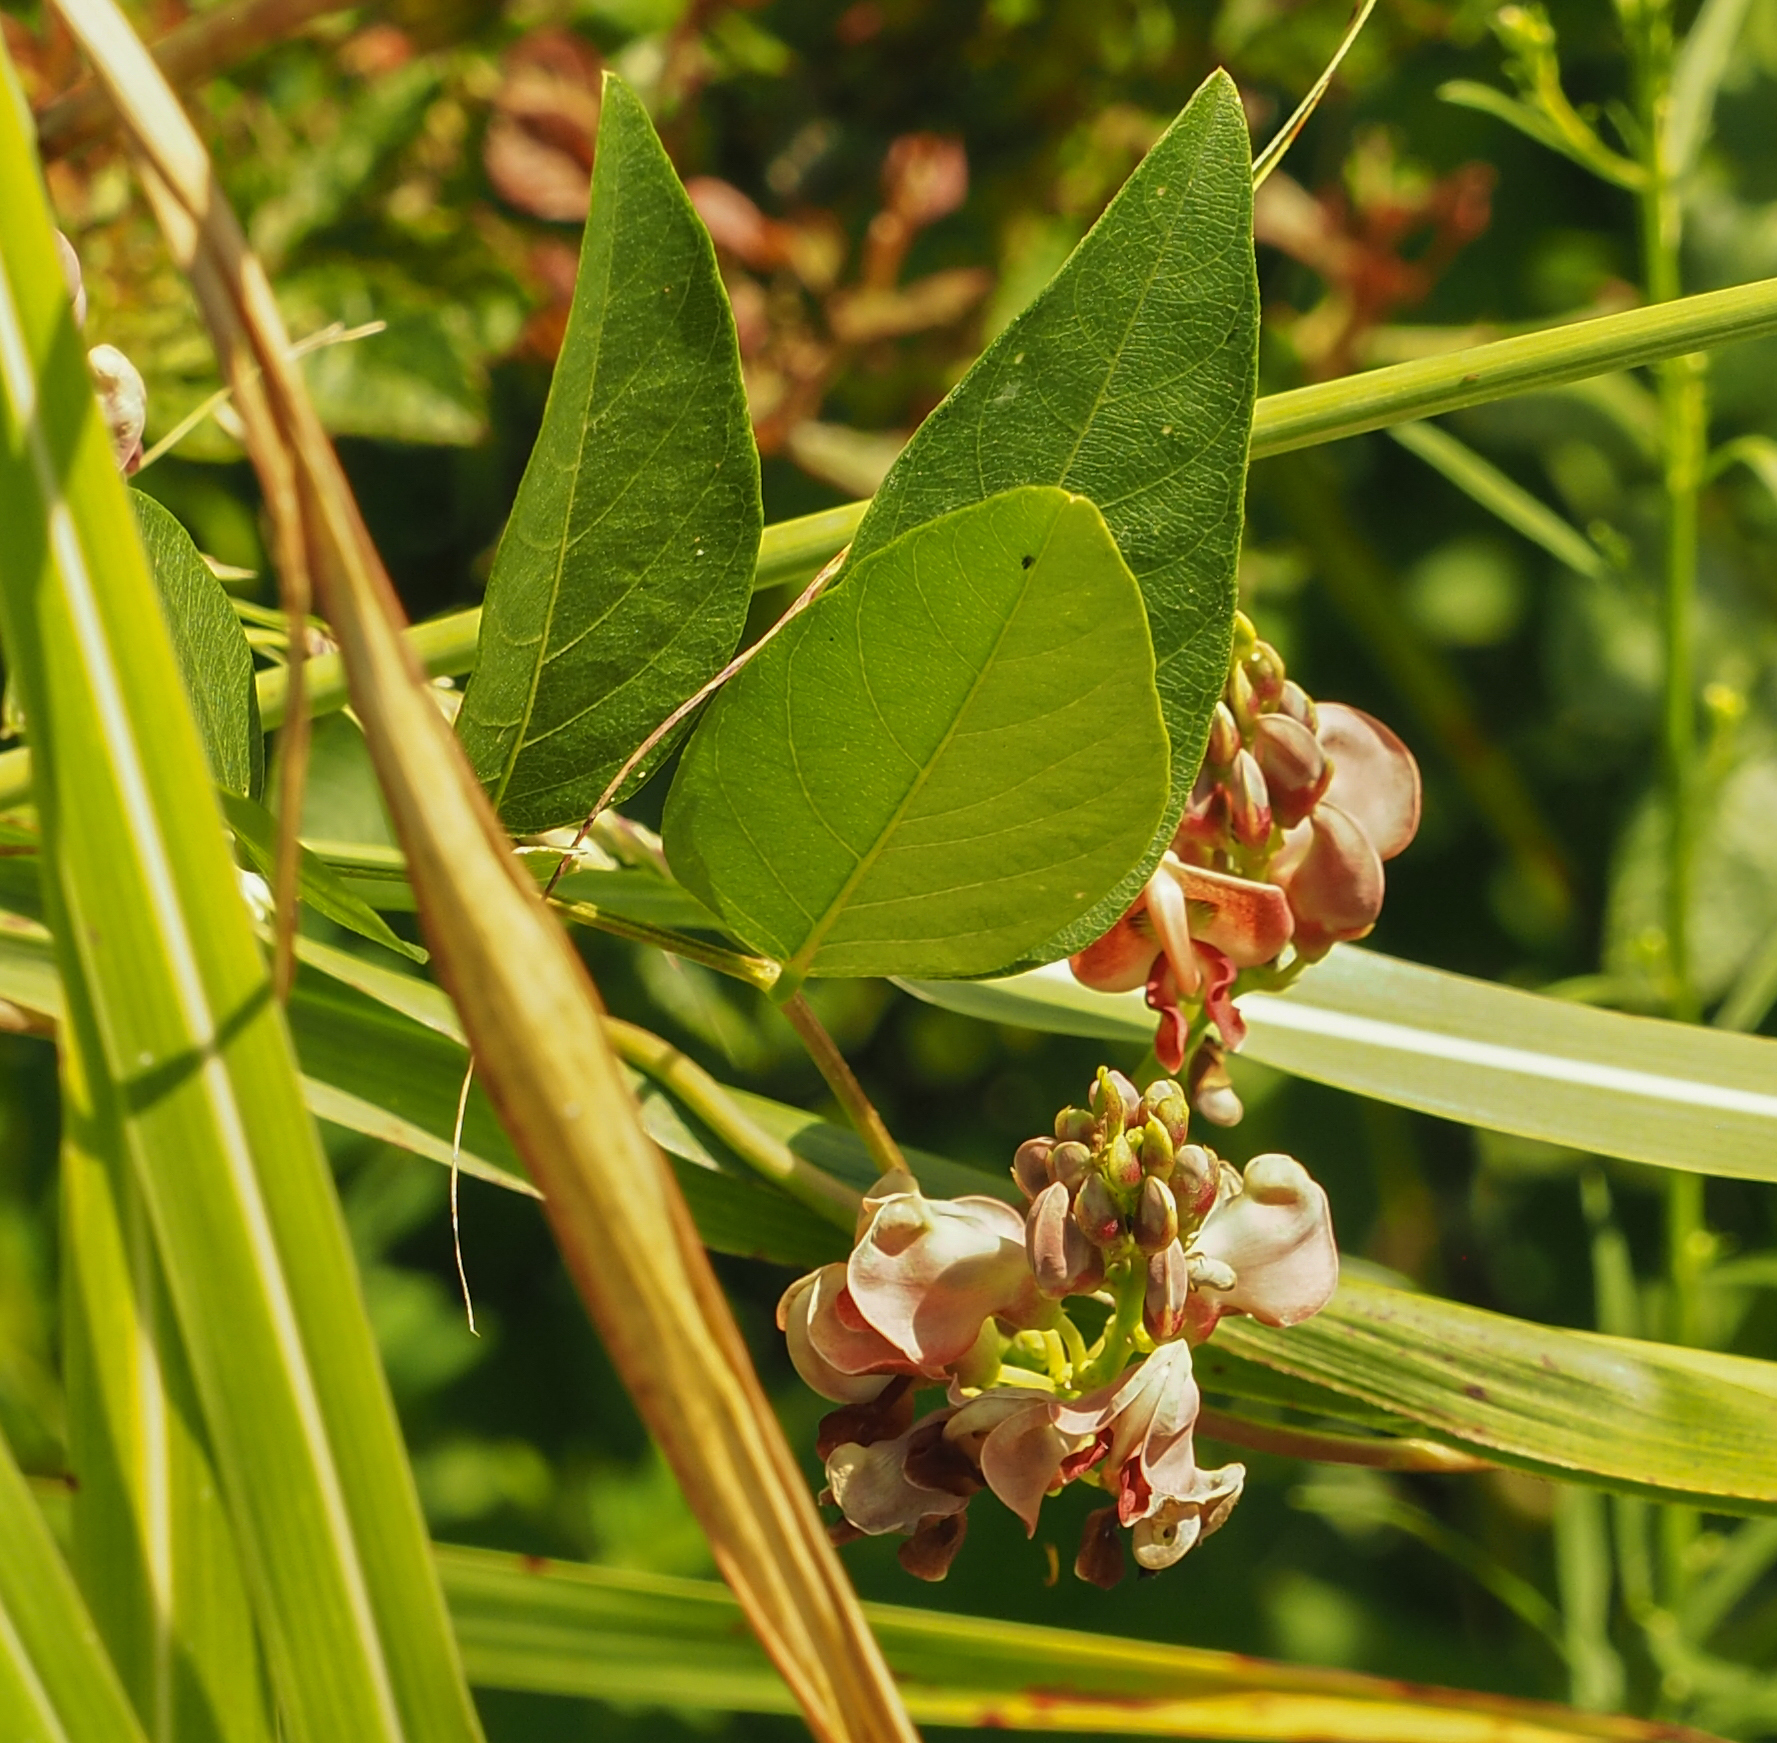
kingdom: Plantae
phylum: Tracheophyta
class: Magnoliopsida
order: Fabales
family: Fabaceae
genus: Apios
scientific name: Apios americana
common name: American potato-bean
